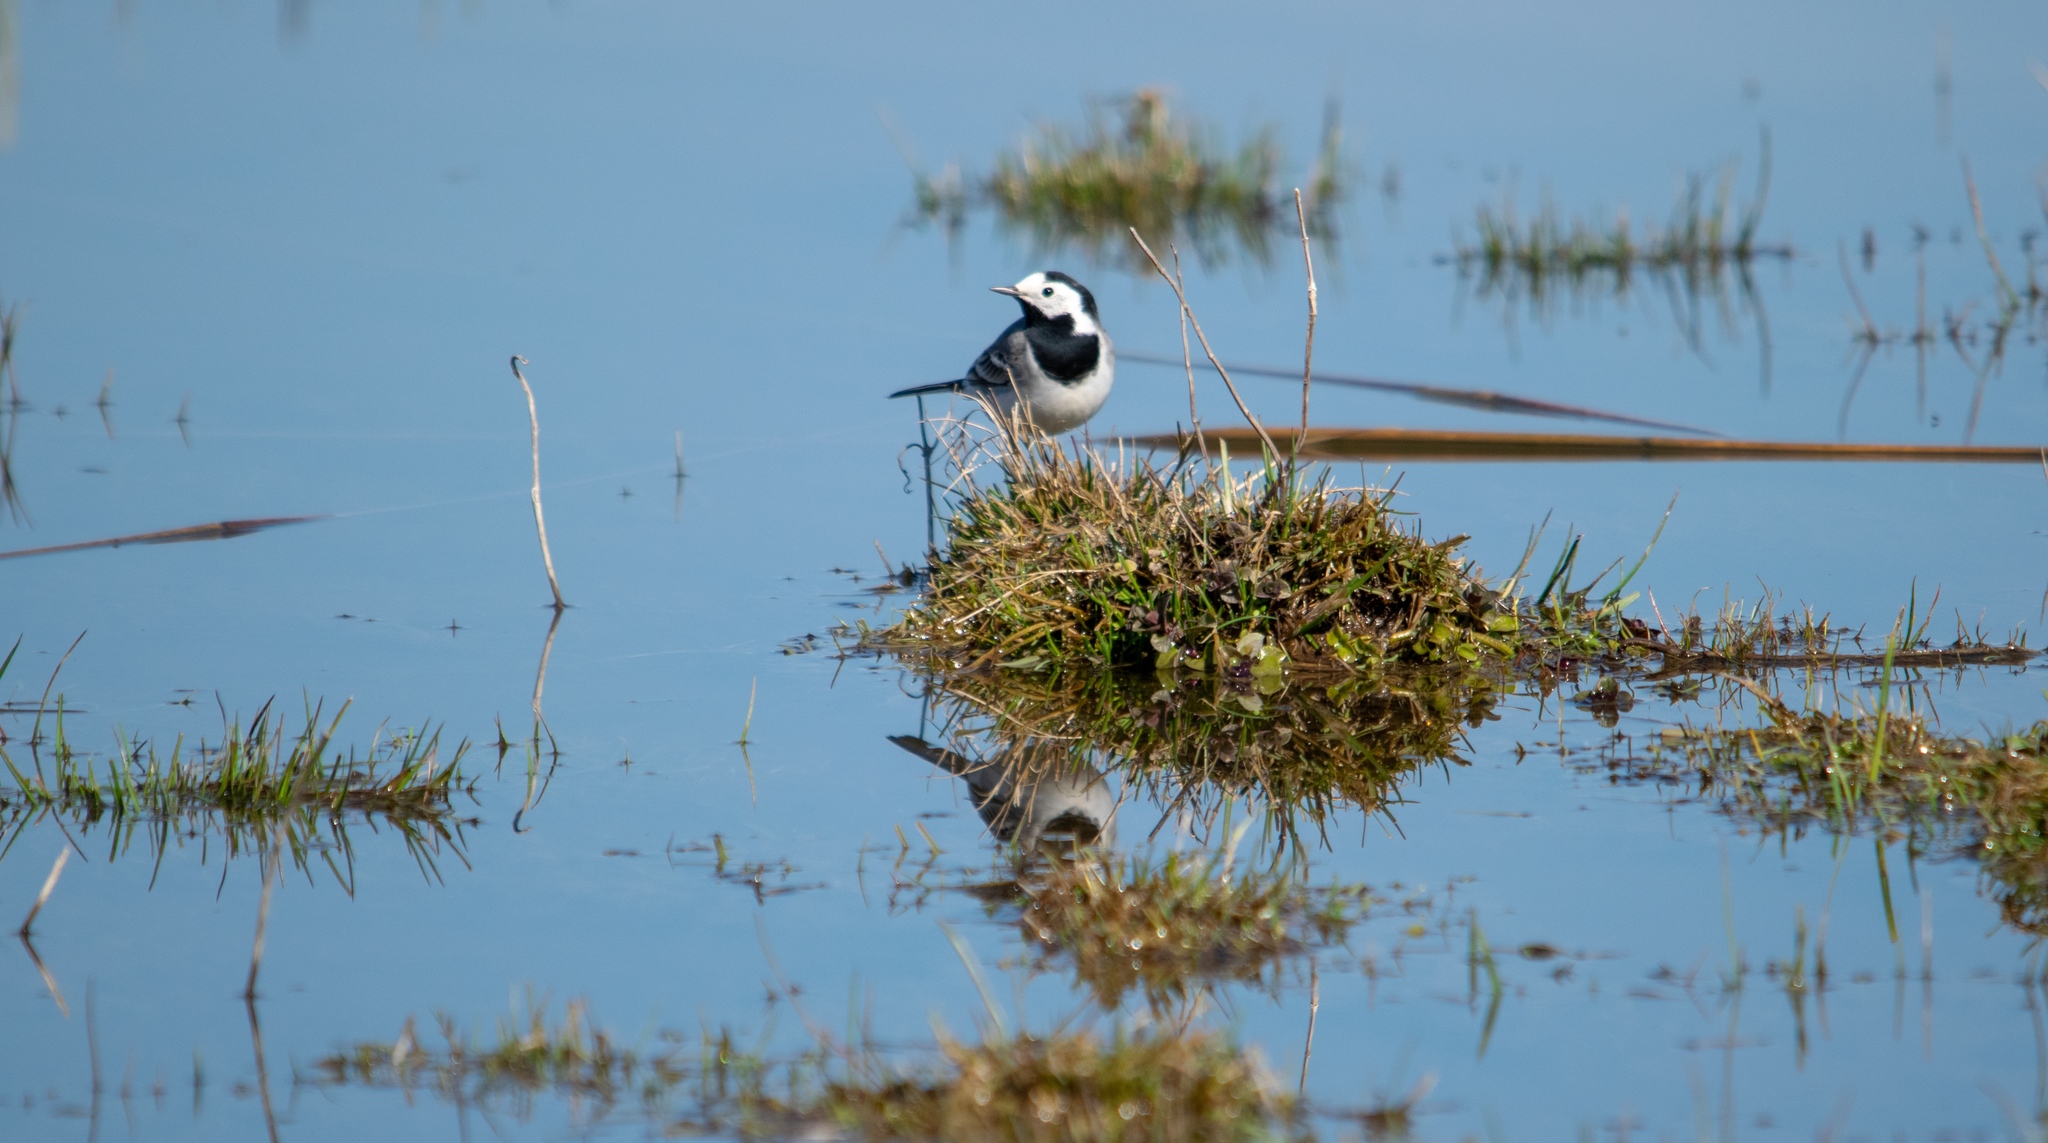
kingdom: Animalia
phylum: Chordata
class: Aves
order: Passeriformes
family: Motacillidae
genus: Motacilla
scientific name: Motacilla alba
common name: White wagtail
